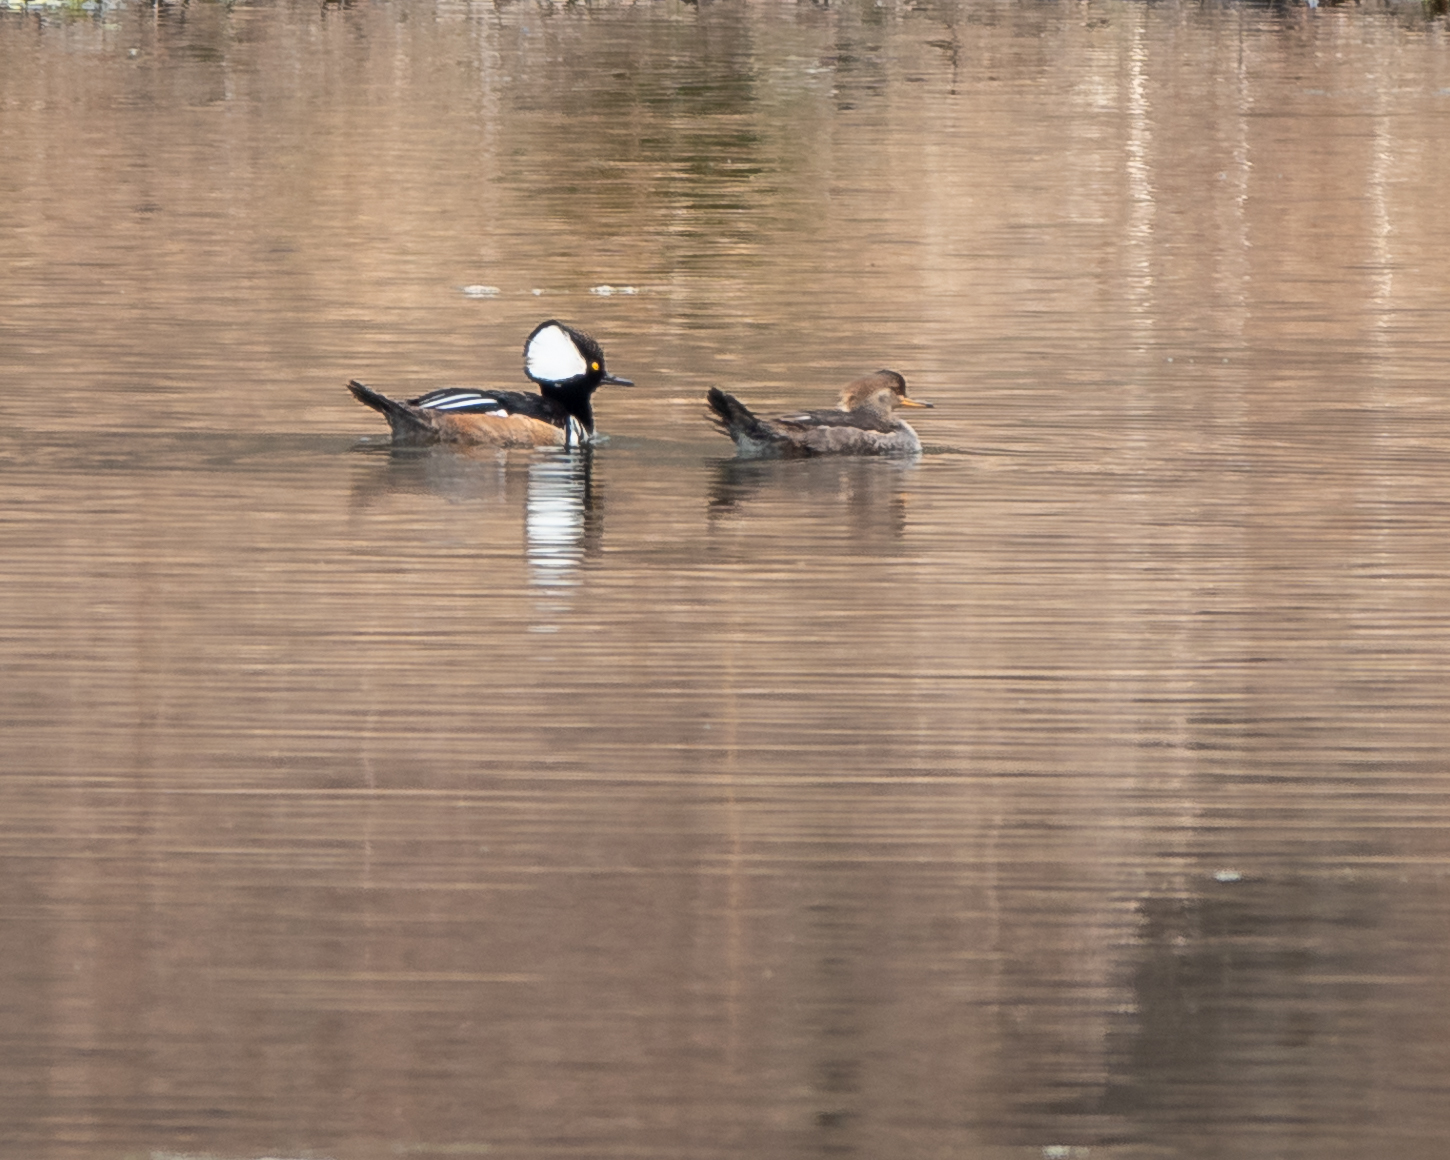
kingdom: Animalia
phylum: Chordata
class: Aves
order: Anseriformes
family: Anatidae
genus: Lophodytes
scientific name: Lophodytes cucullatus
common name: Hooded merganser
